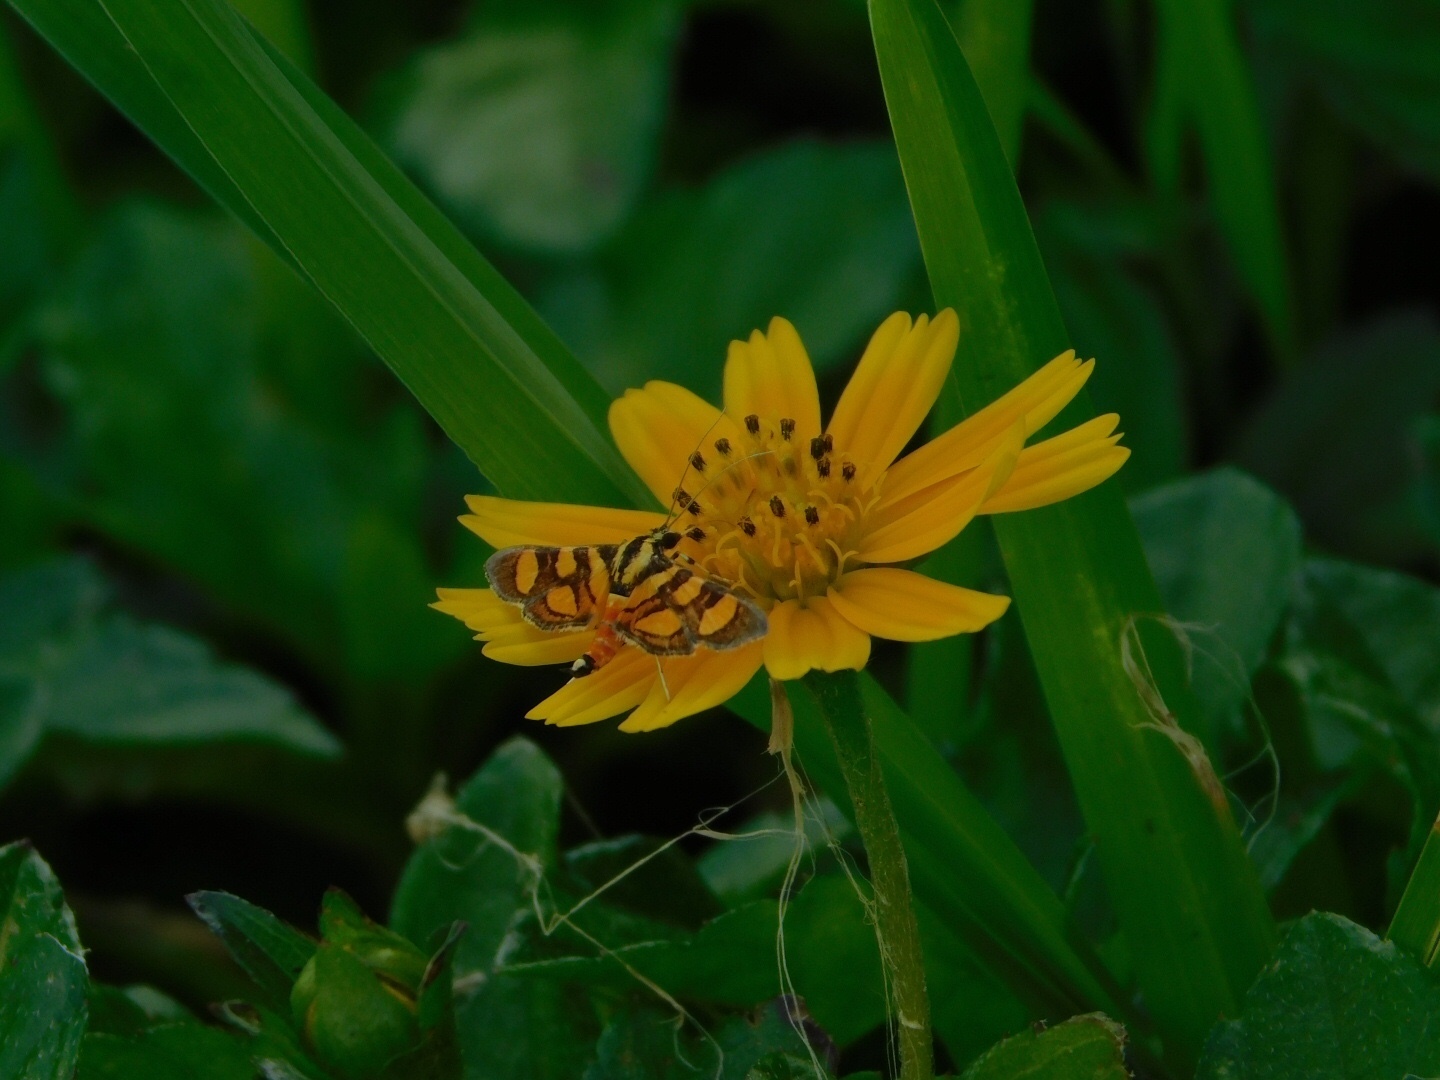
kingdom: Animalia
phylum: Arthropoda
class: Insecta
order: Lepidoptera
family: Crambidae
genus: Syngamia
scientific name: Syngamia florella
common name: Orange-spotted flower moth
